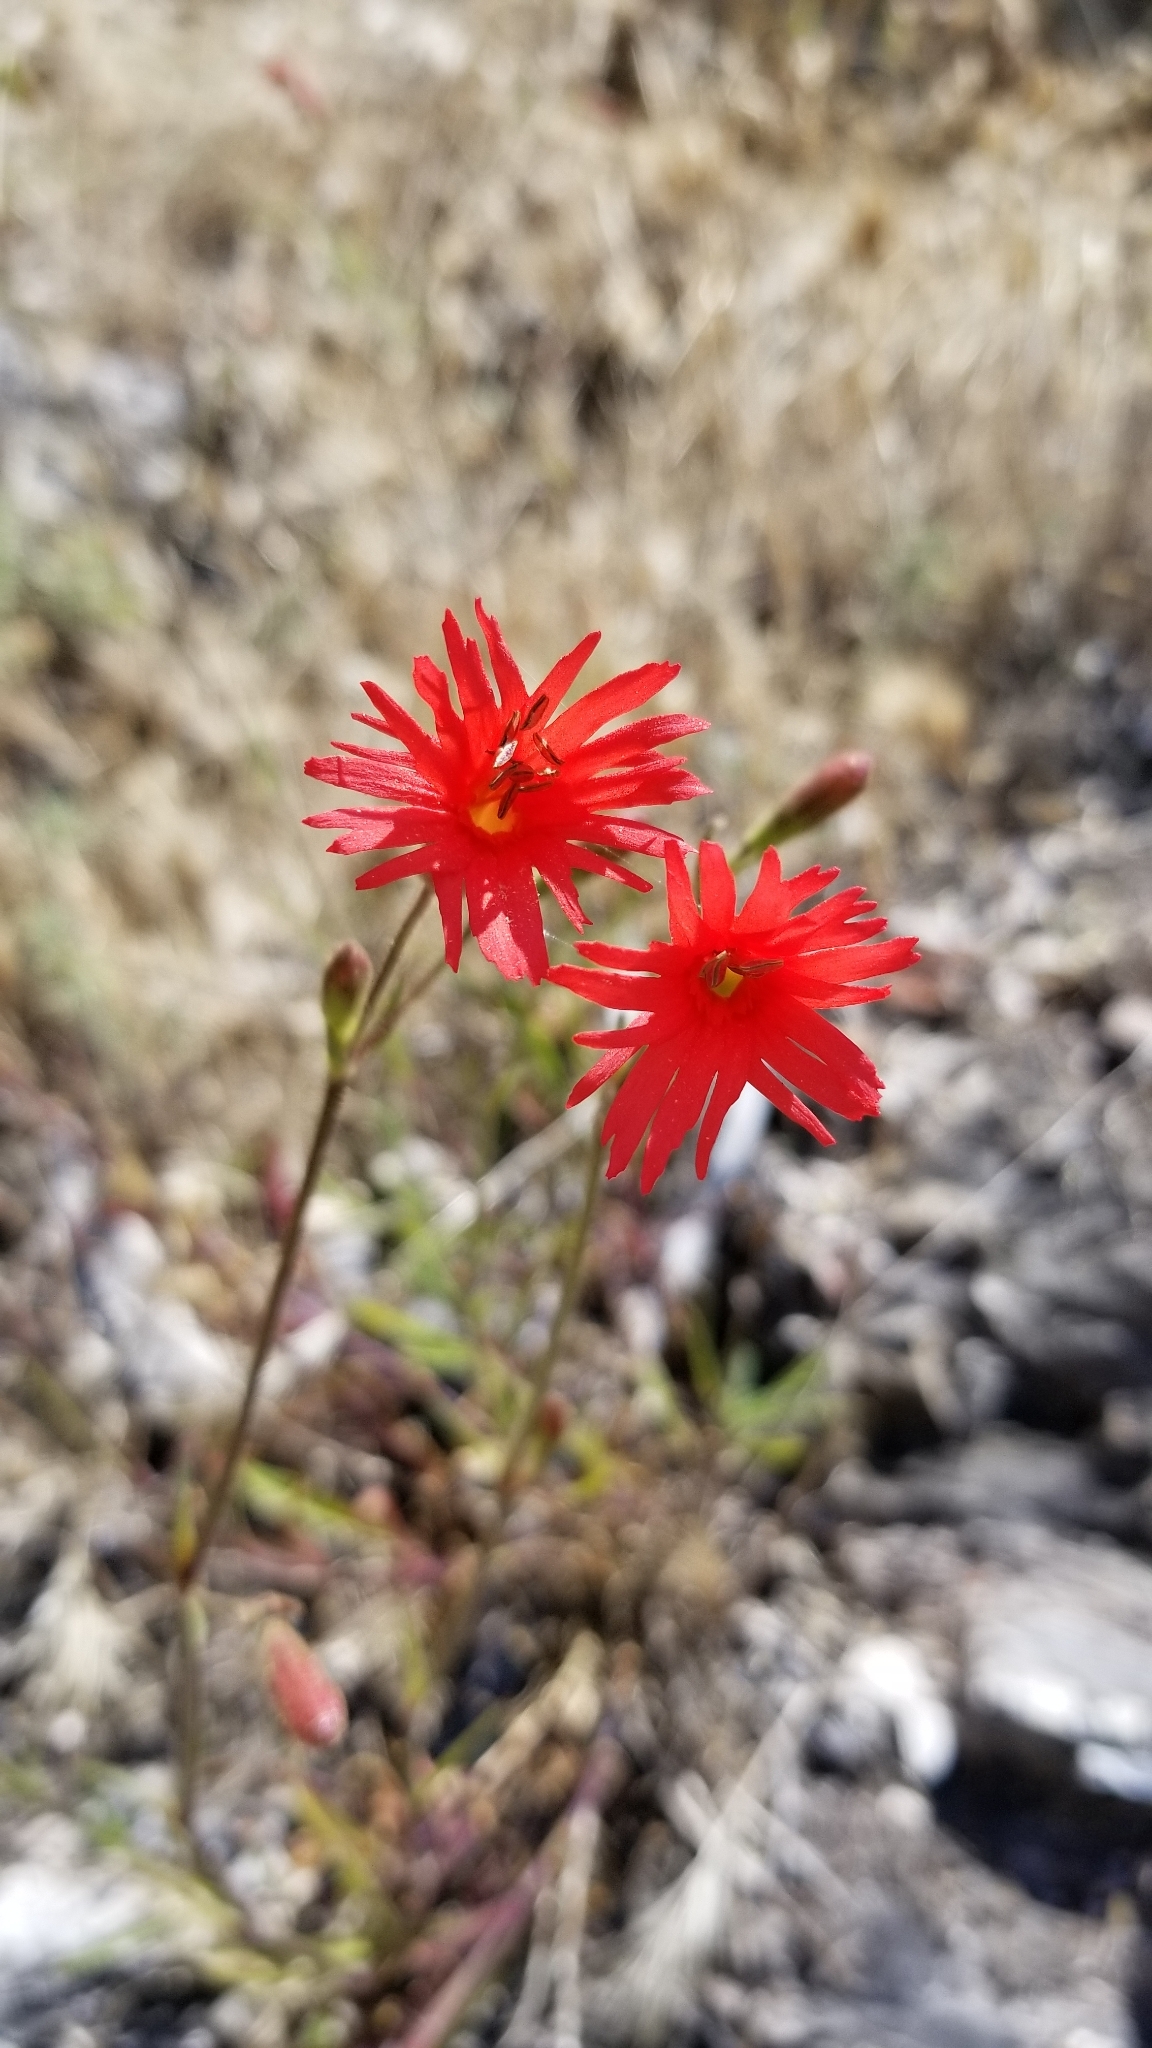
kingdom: Plantae
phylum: Tracheophyta
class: Magnoliopsida
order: Caryophyllales
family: Caryophyllaceae
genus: Silene
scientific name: Silene laciniata
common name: Indian-pink
